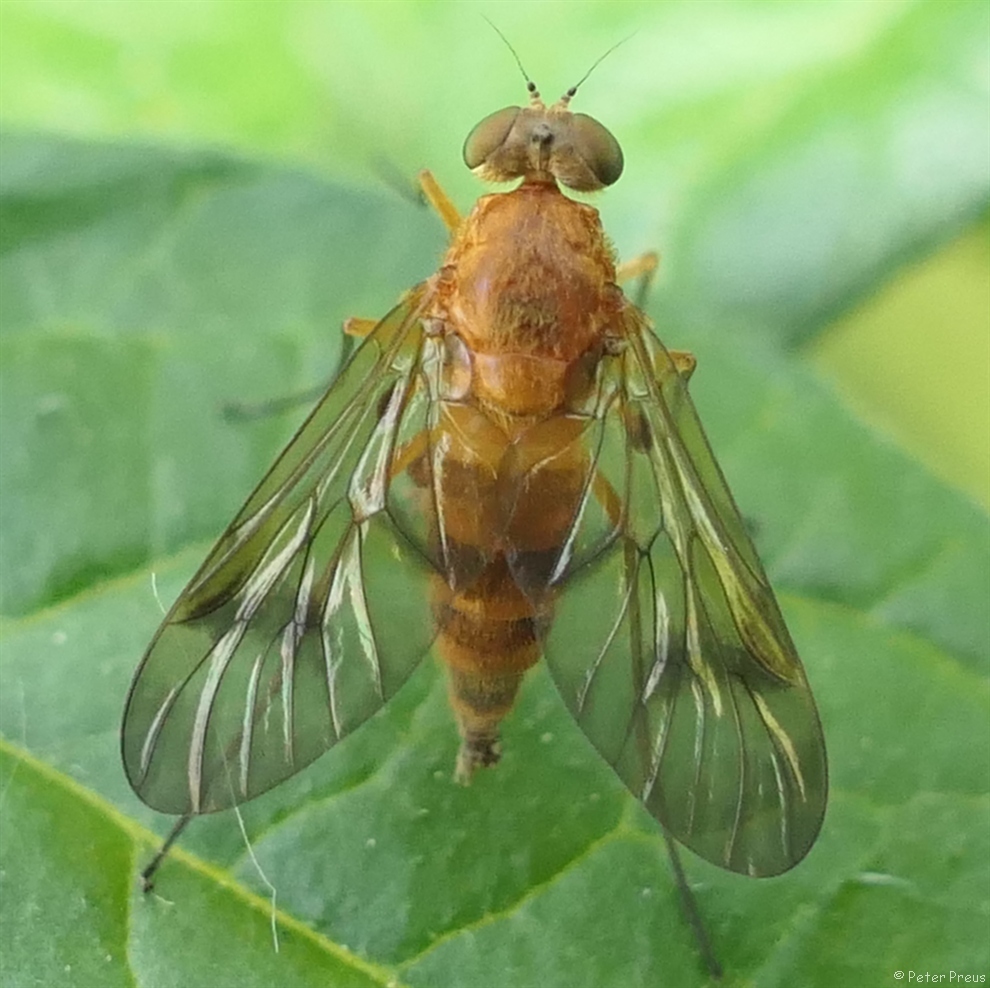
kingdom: Animalia
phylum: Arthropoda
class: Insecta
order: Diptera
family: Rhagionidae
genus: Chrysopilus
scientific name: Chrysopilus laetus
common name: Tree snipefly
